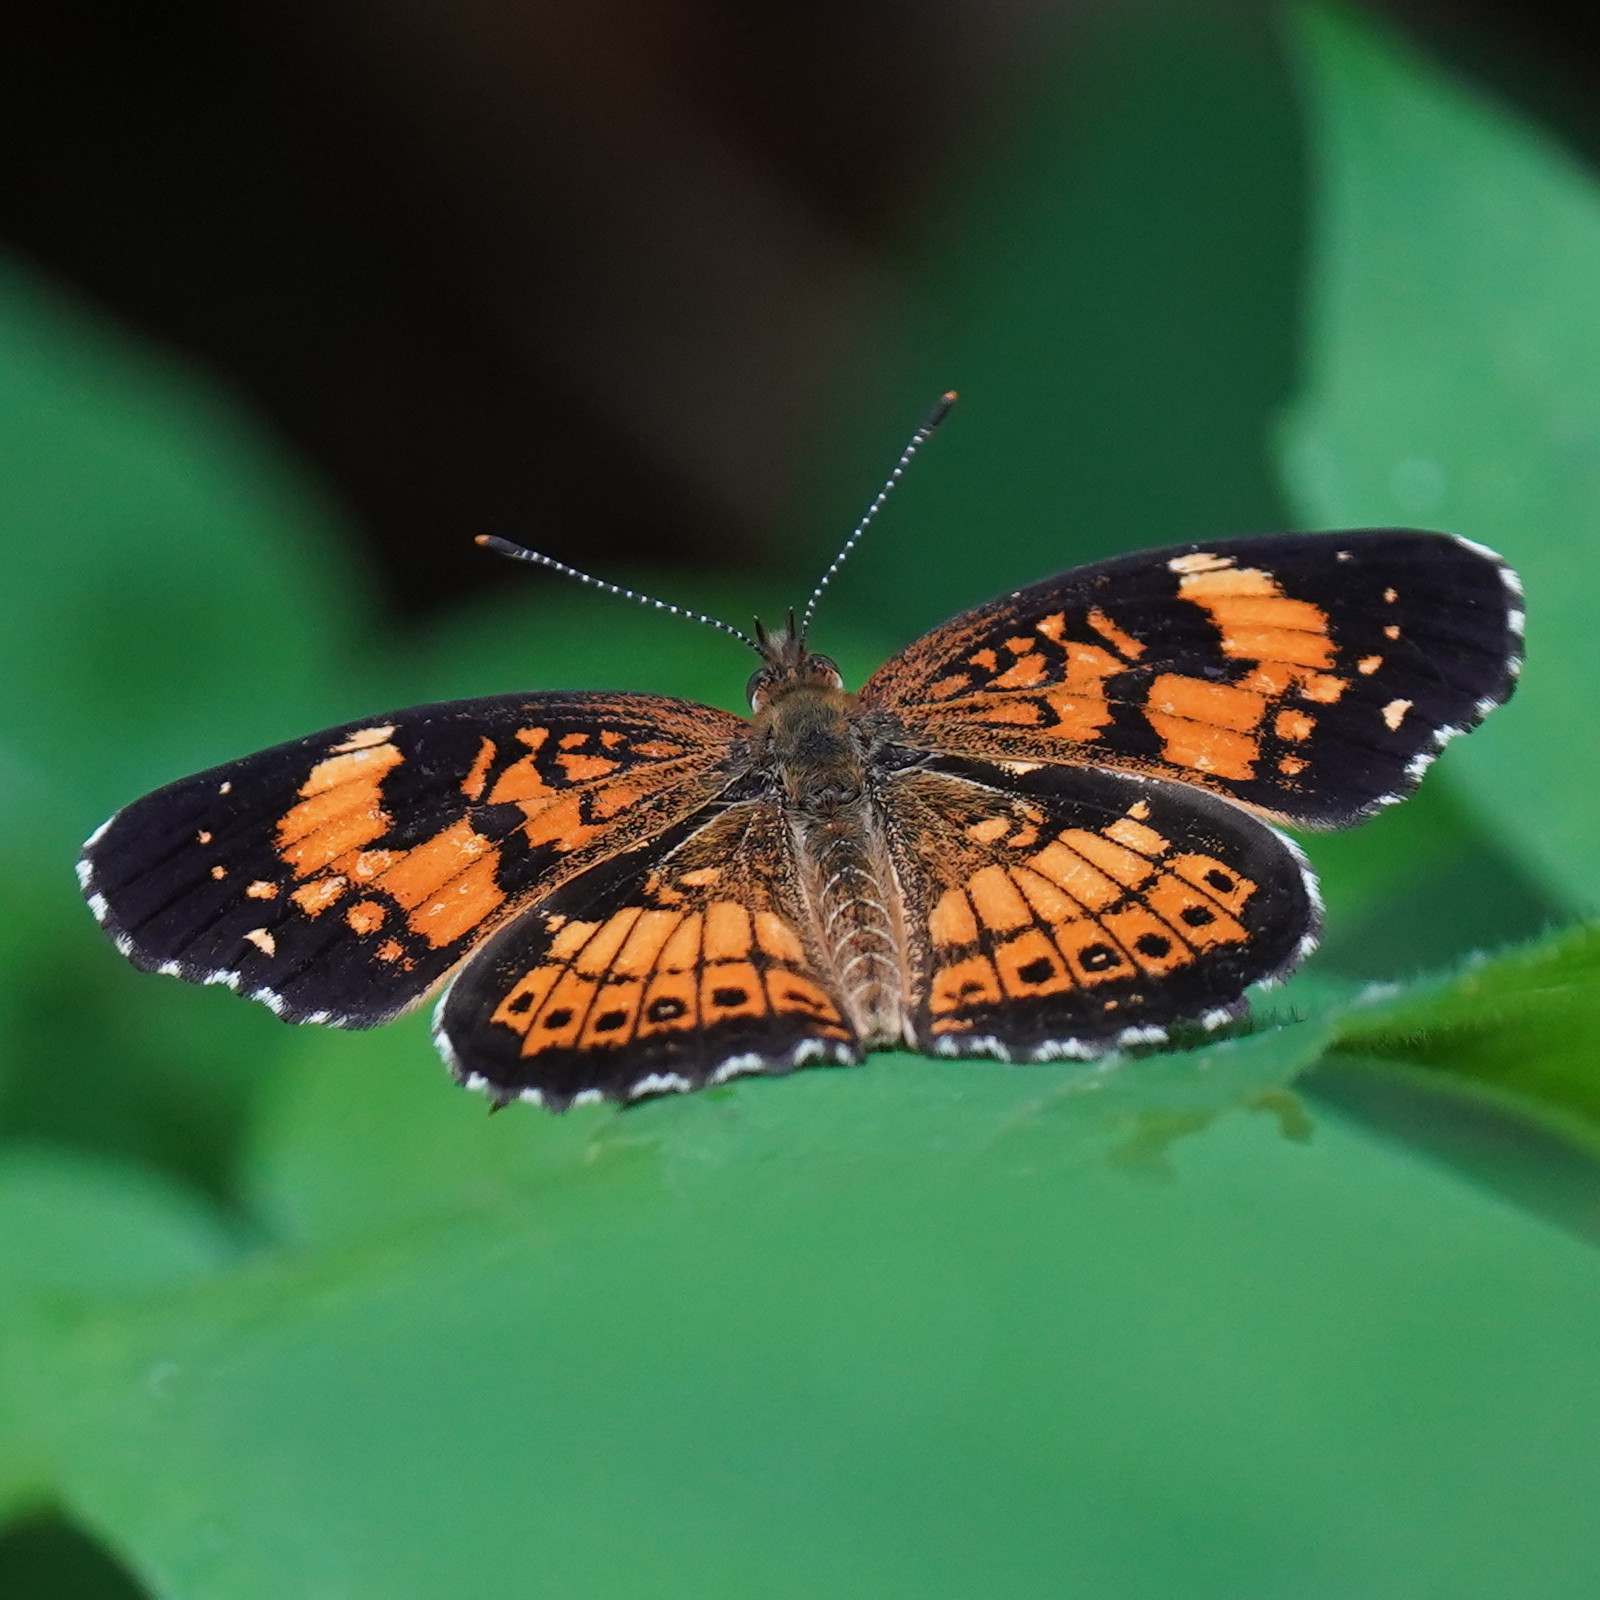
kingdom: Animalia
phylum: Arthropoda
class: Insecta
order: Lepidoptera
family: Nymphalidae
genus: Chlosyne
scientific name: Chlosyne nycteis
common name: Silvery checkerspot
